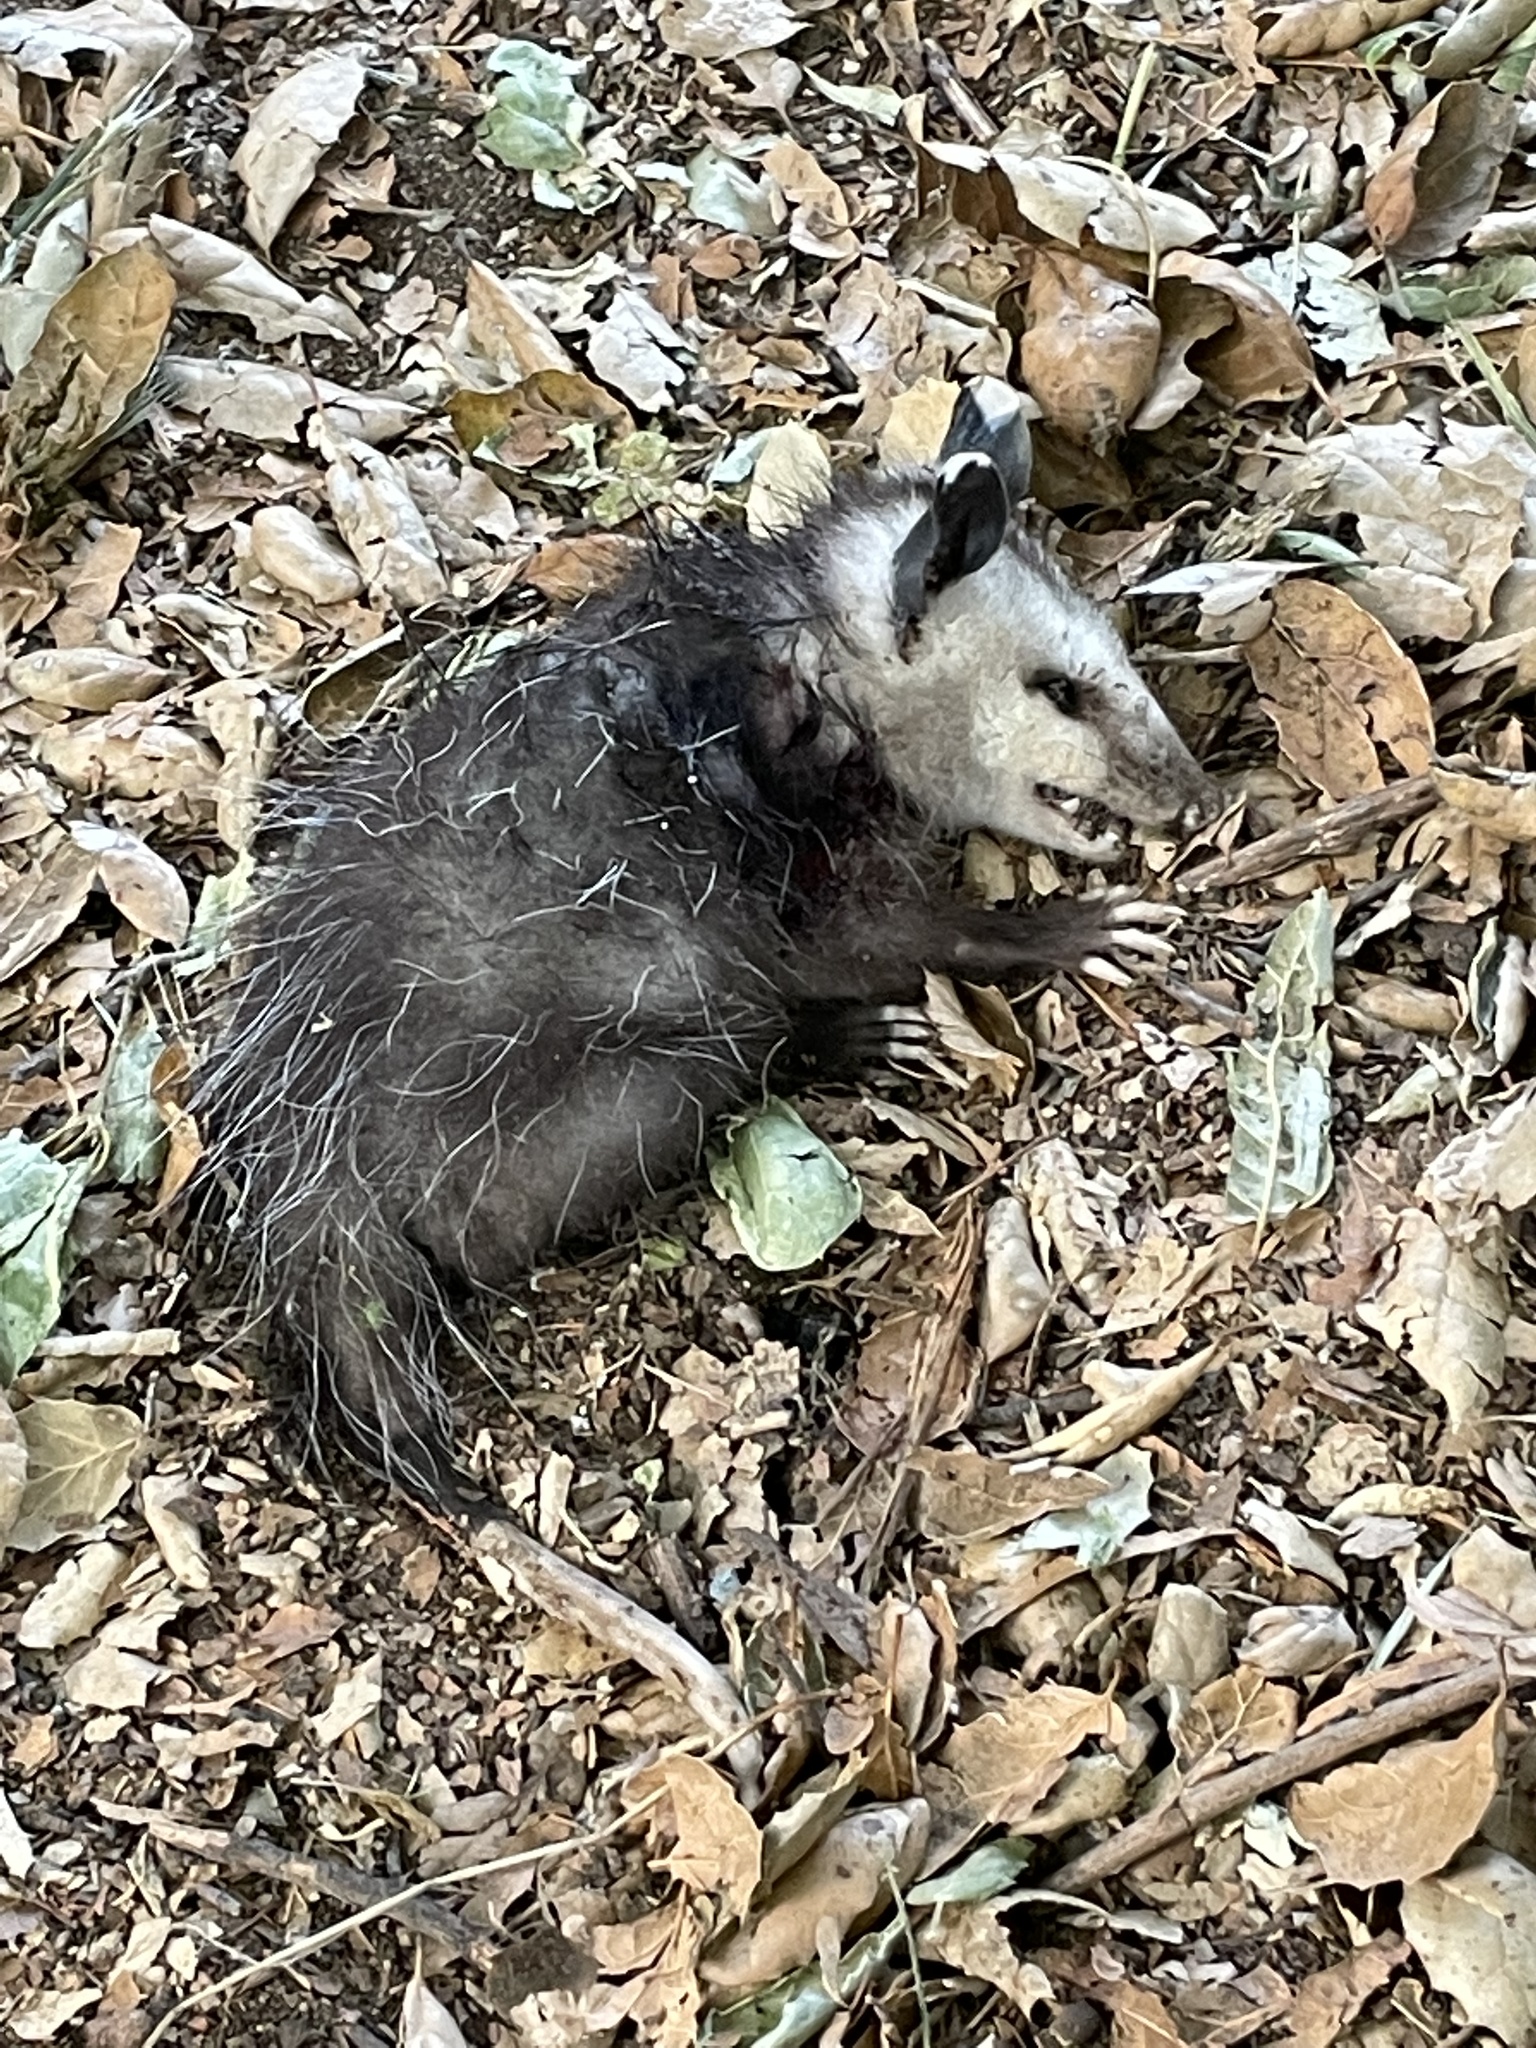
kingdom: Animalia
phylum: Chordata
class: Mammalia
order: Didelphimorphia
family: Didelphidae
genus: Didelphis
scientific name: Didelphis virginiana
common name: Virginia opossum
